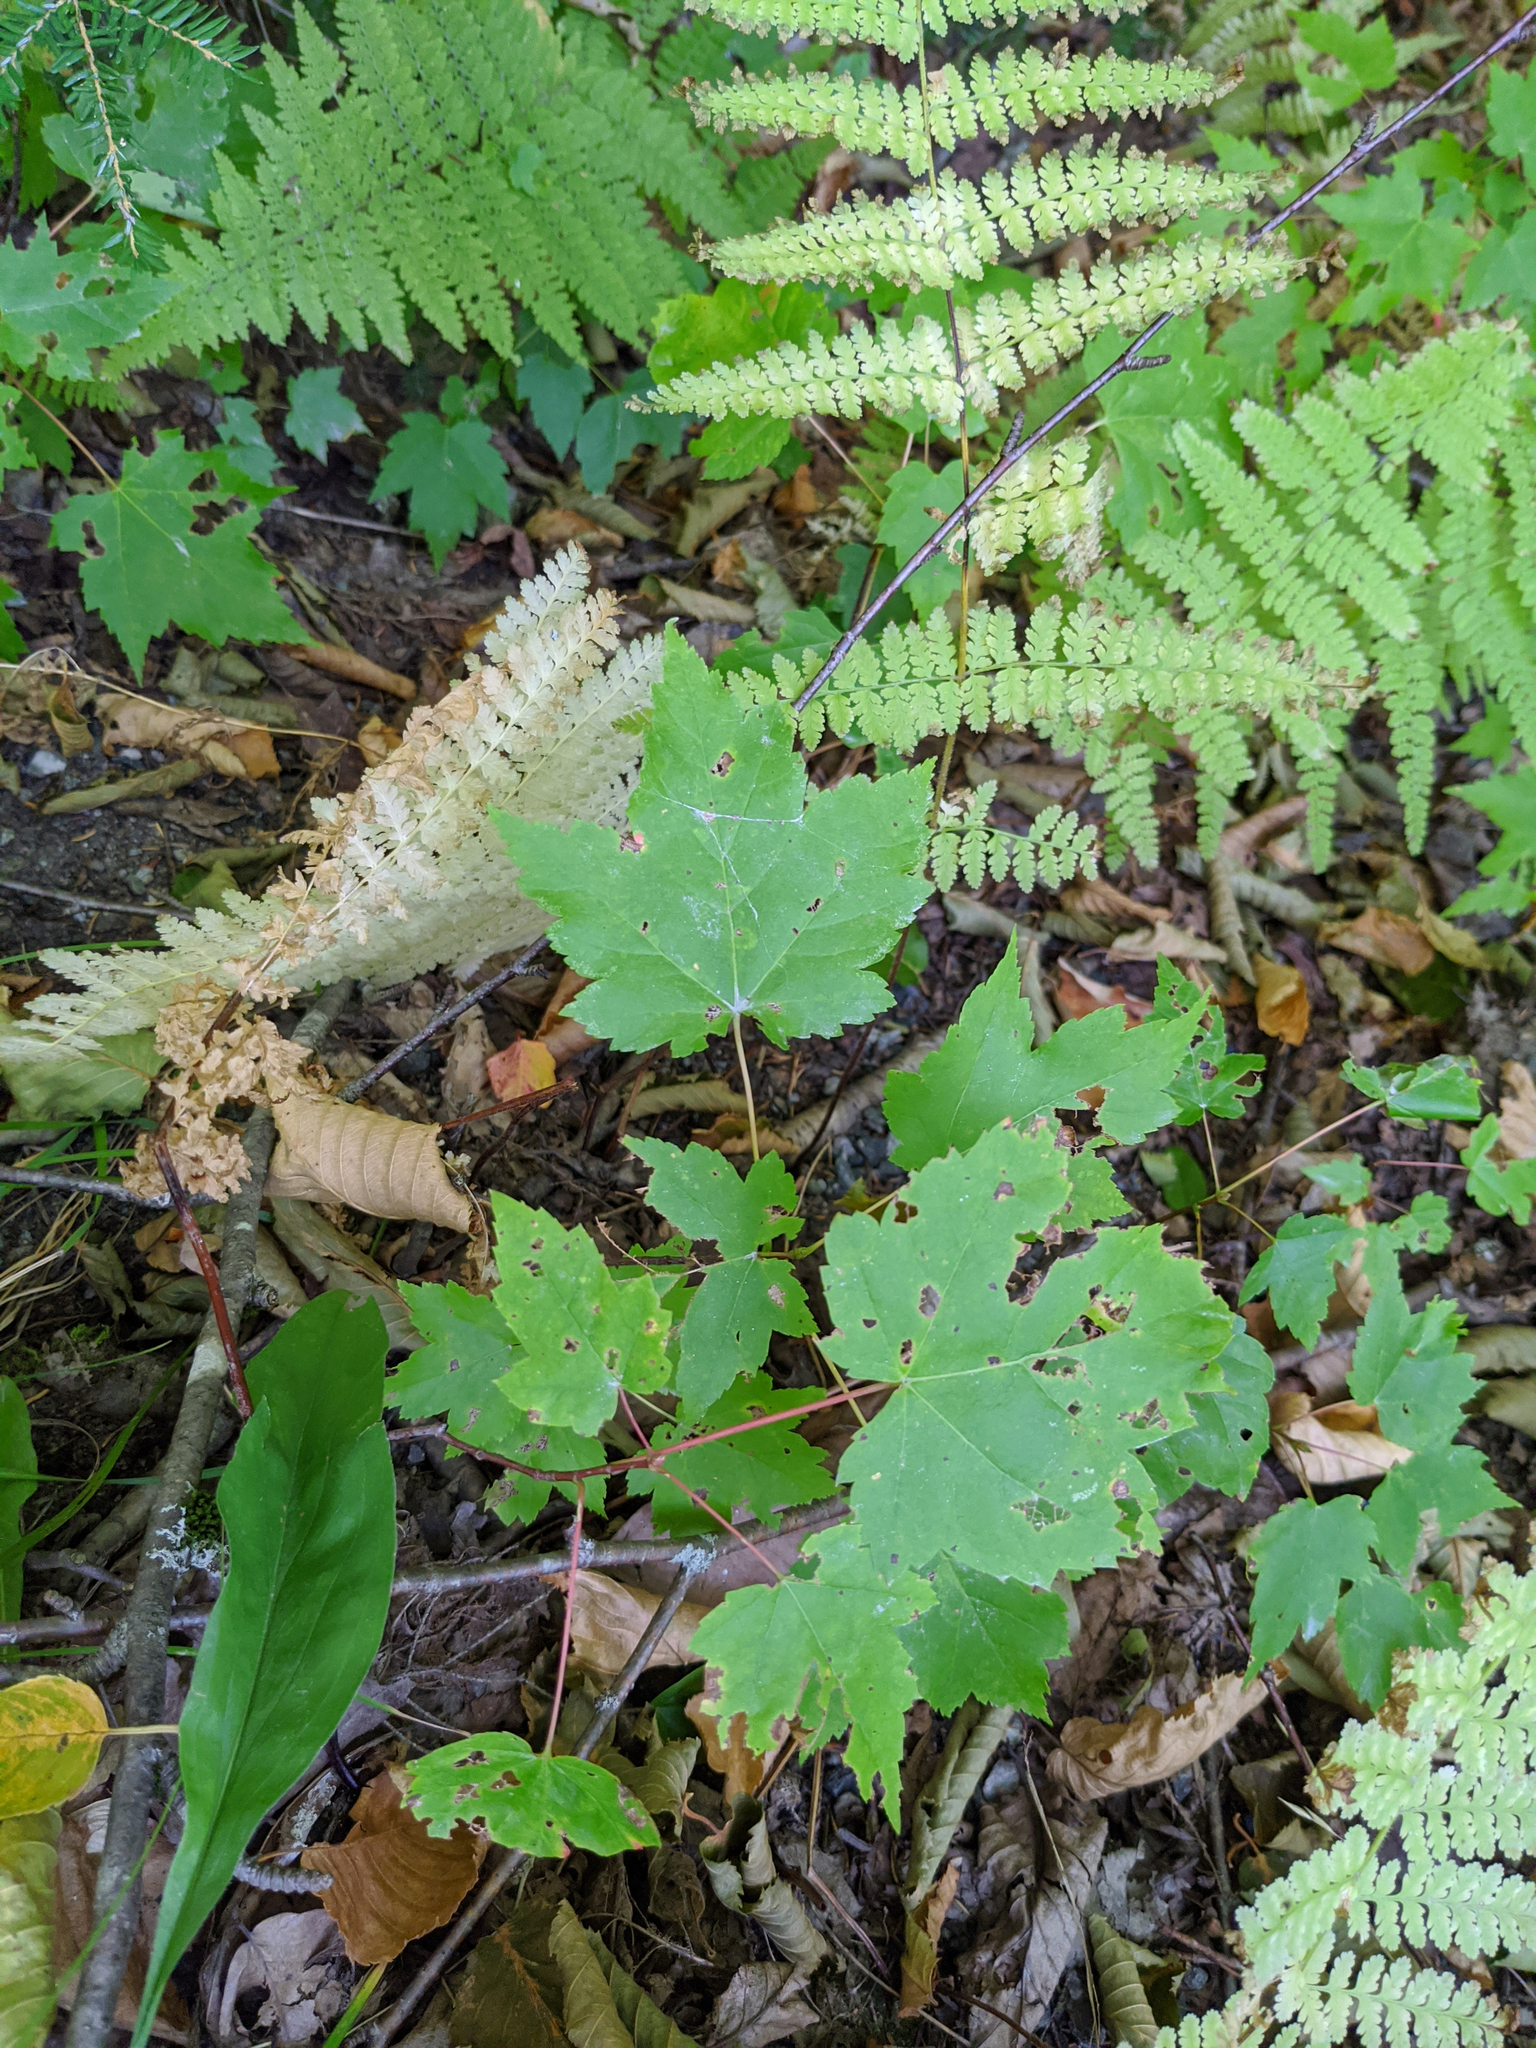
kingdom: Plantae
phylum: Tracheophyta
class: Magnoliopsida
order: Sapindales
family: Sapindaceae
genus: Acer
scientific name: Acer rubrum
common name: Red maple
